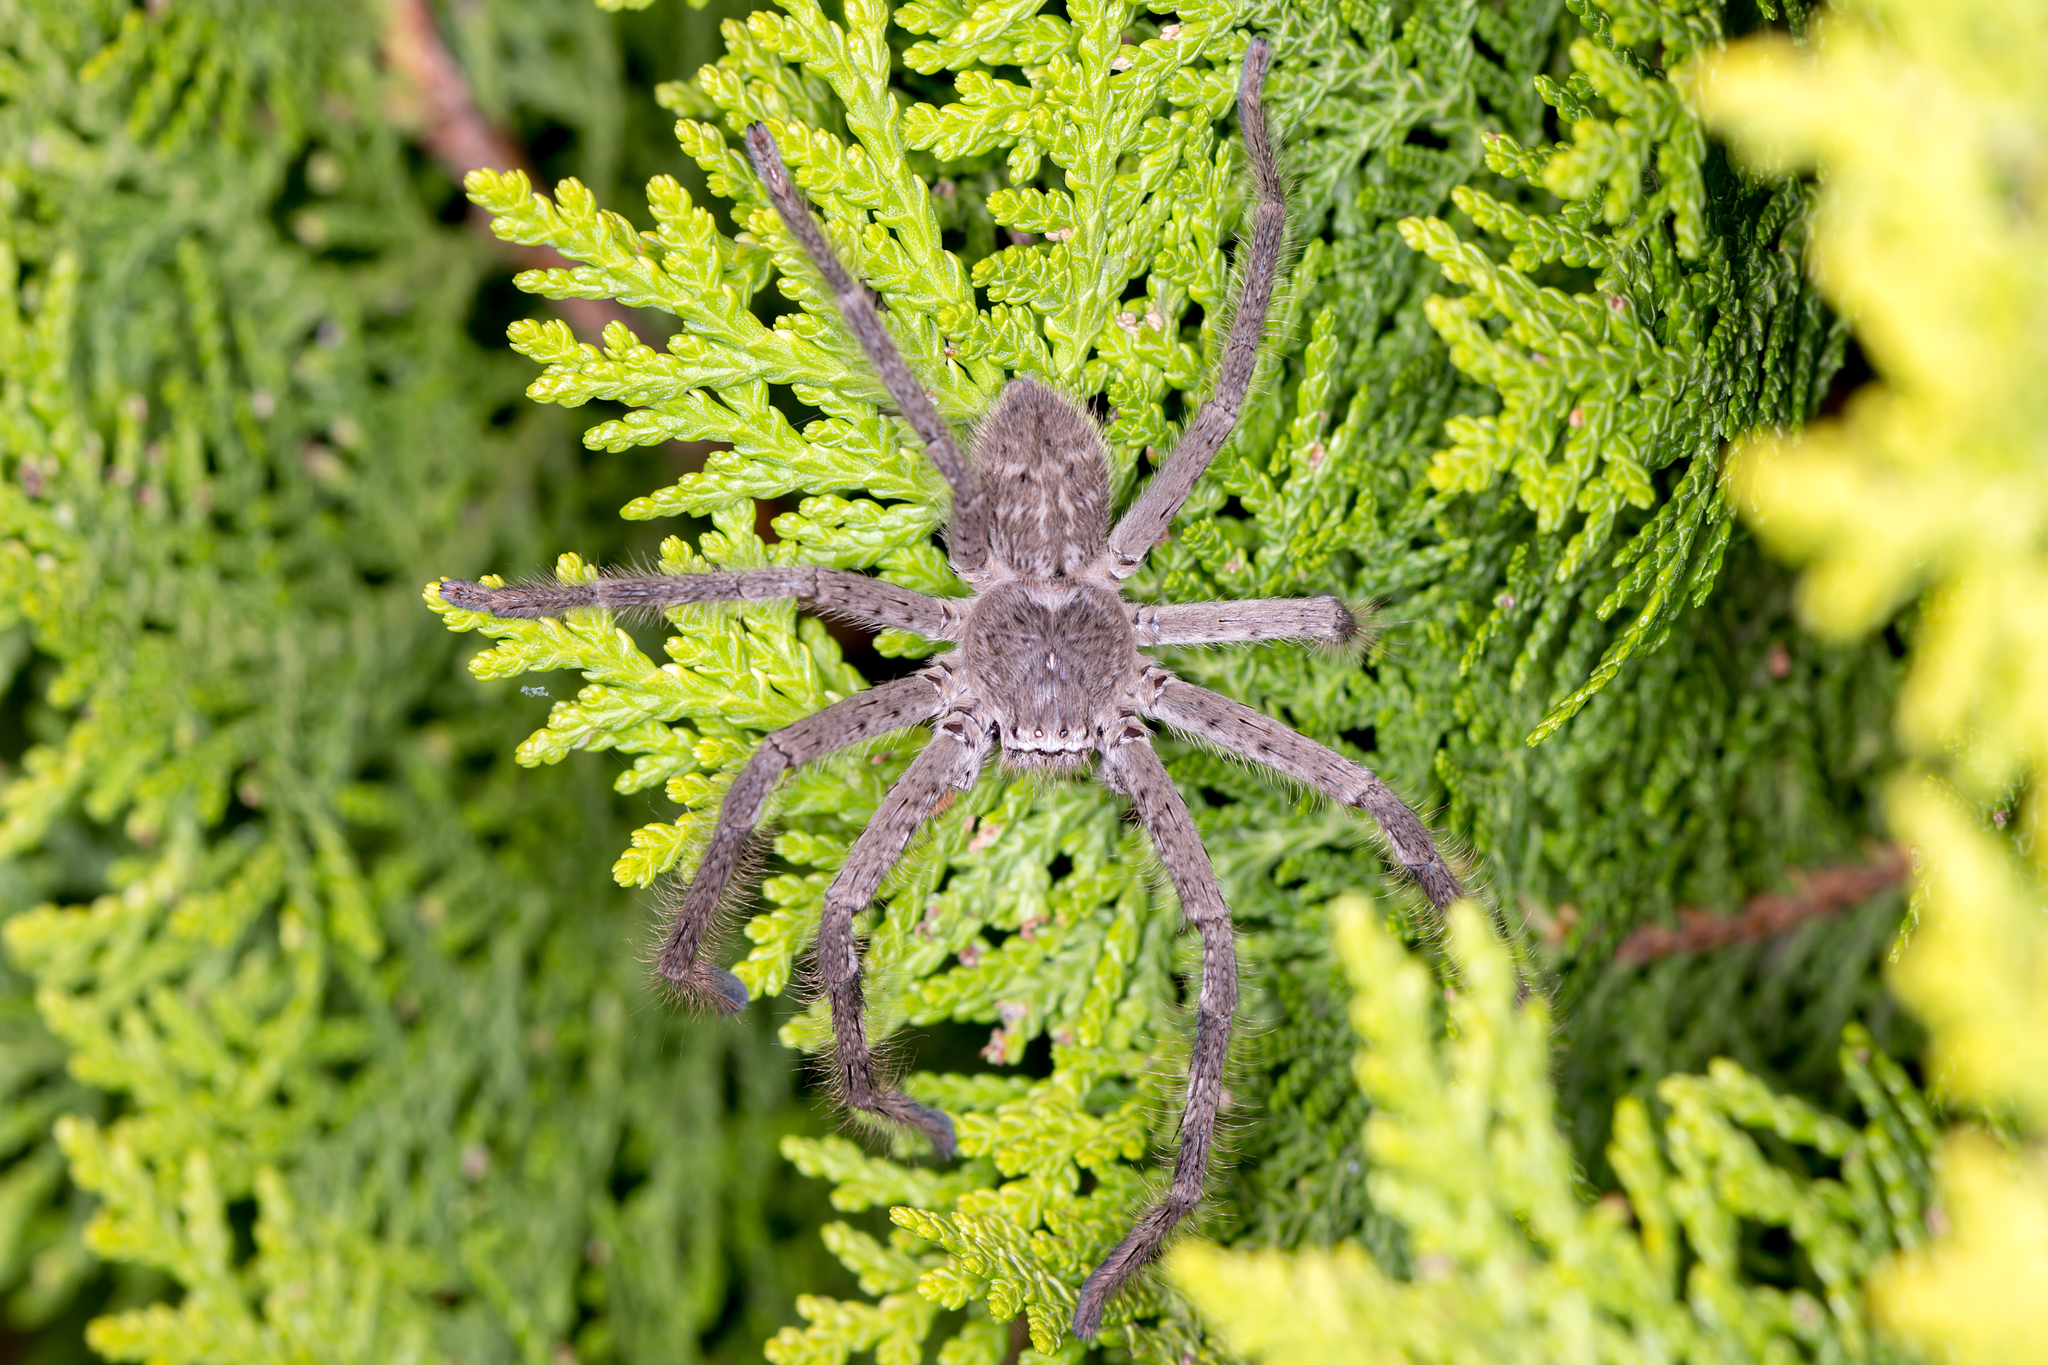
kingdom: Animalia
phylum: Arthropoda
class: Arachnida
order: Araneae
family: Sparassidae
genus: Isopedella
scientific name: Isopedella victorialis
